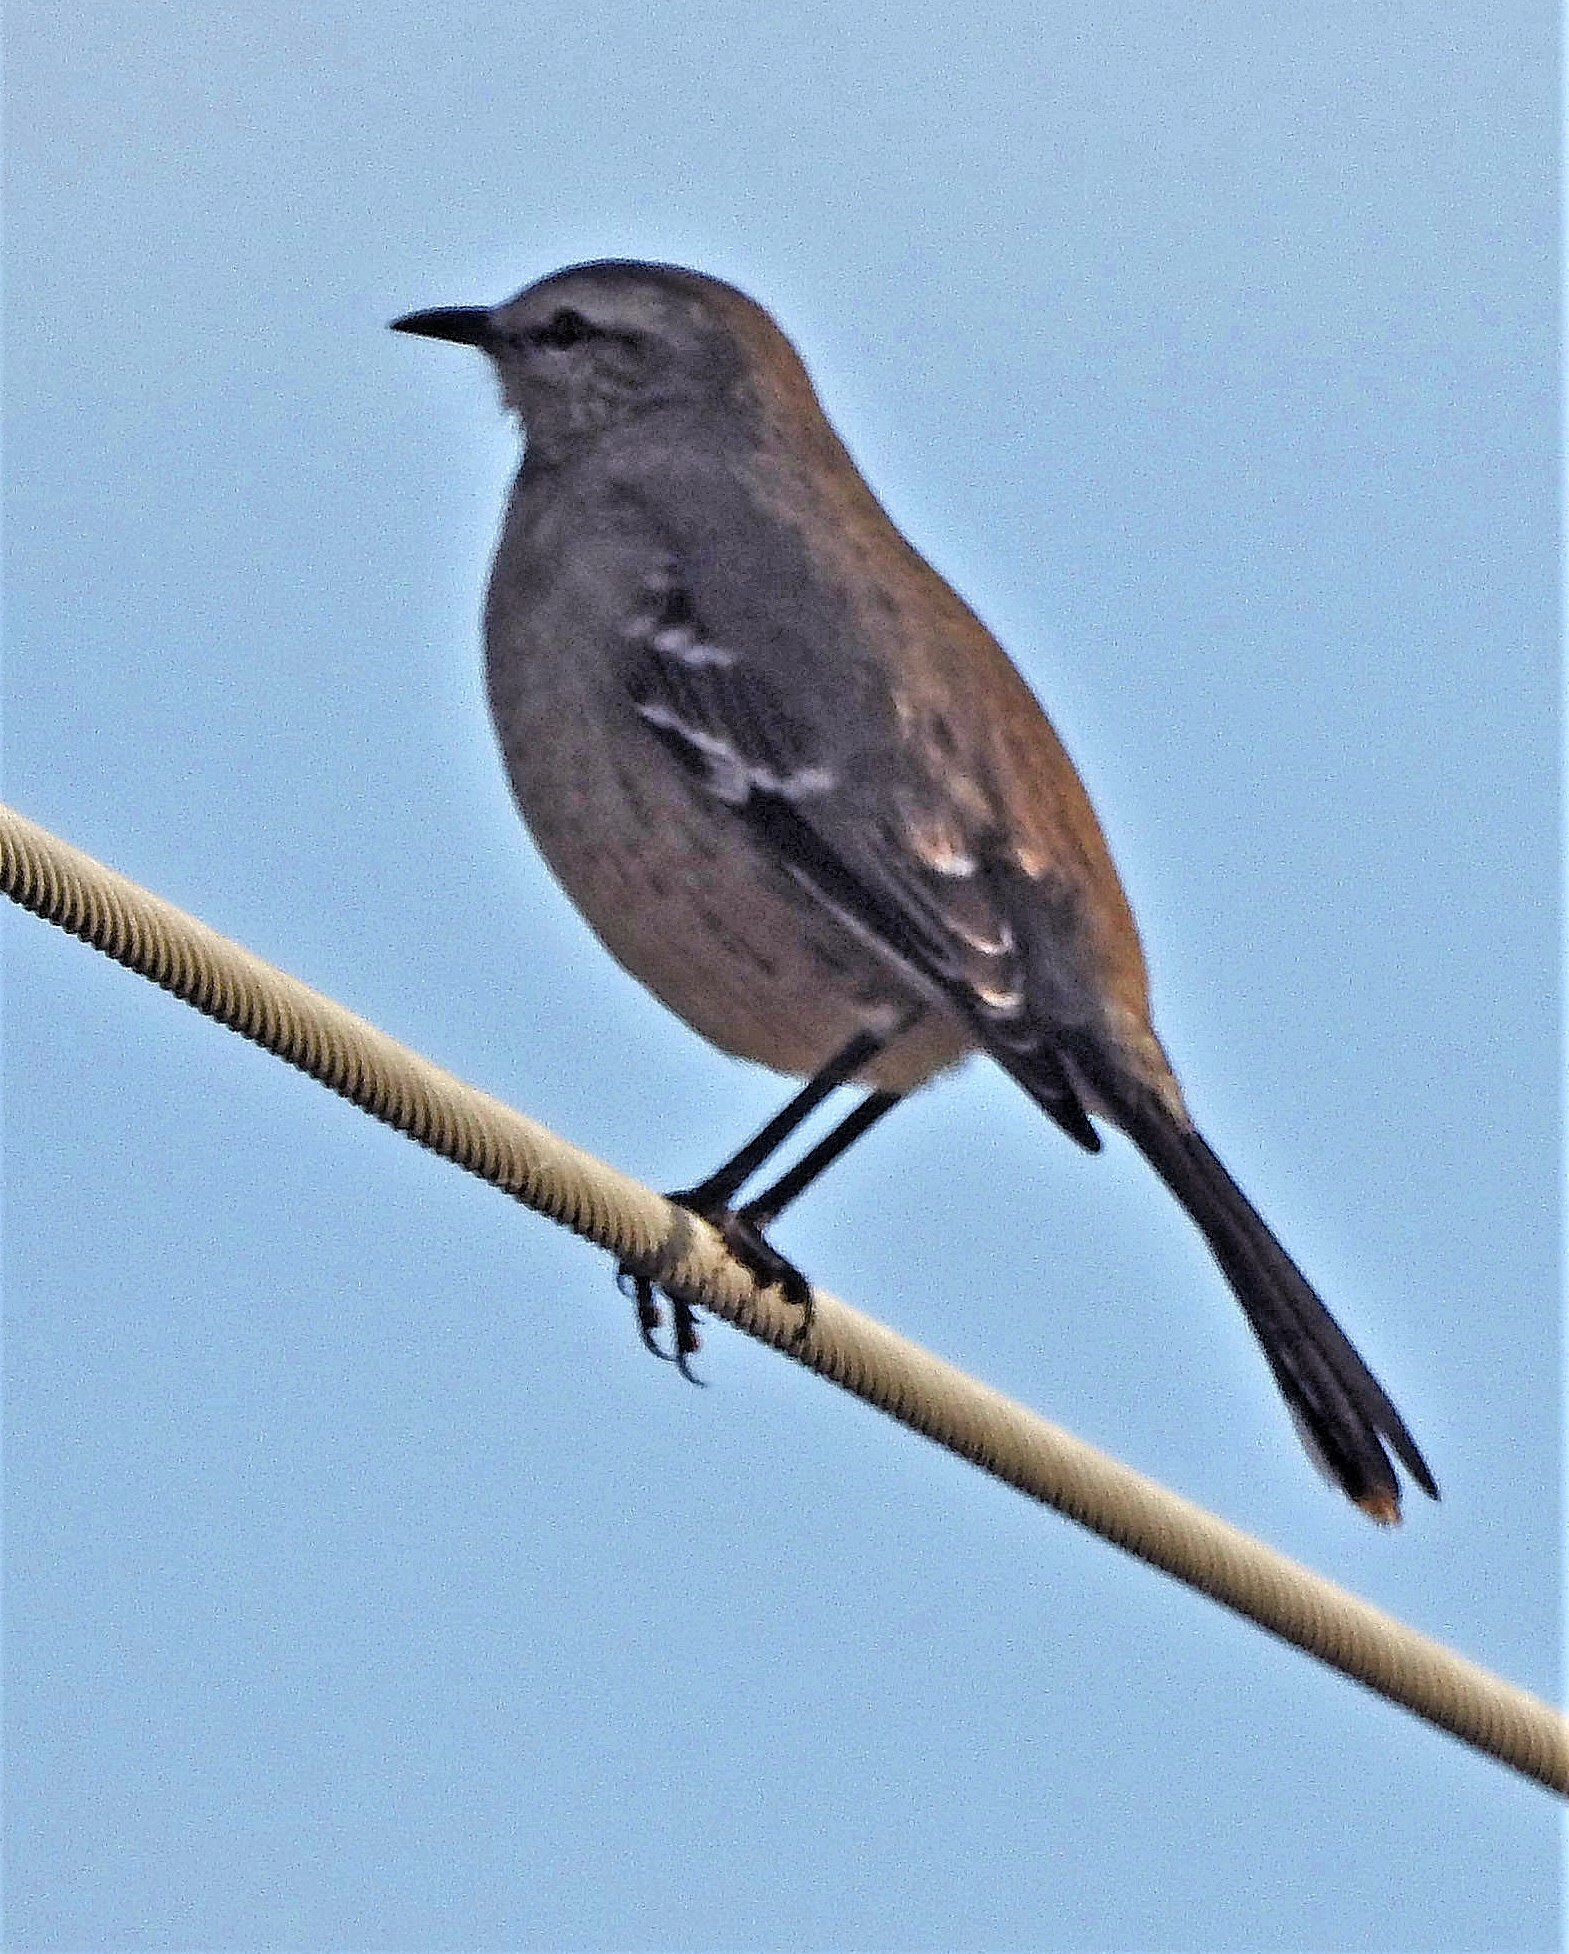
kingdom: Animalia
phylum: Chordata
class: Aves
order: Passeriformes
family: Mimidae
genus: Mimus
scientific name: Mimus patagonicus
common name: Patagonian mockingbird
